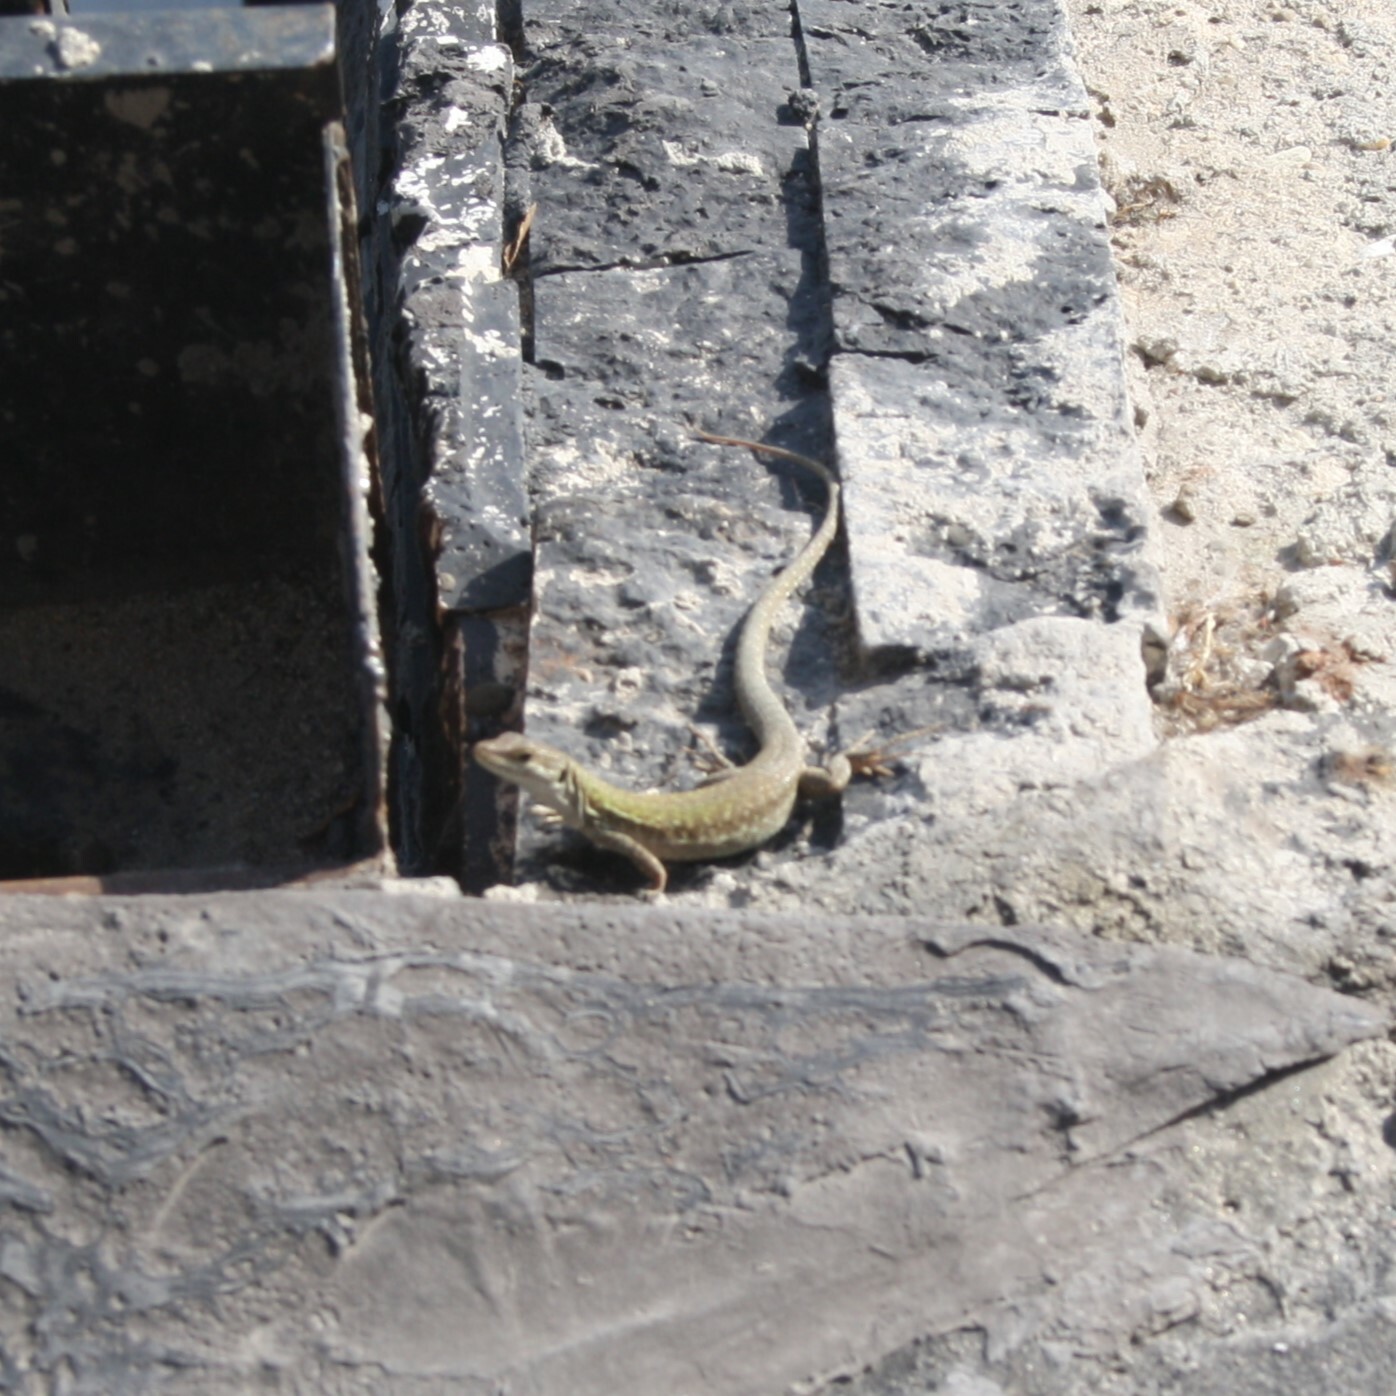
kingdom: Animalia
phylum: Chordata
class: Squamata
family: Lacertidae
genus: Podarcis
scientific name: Podarcis siculus
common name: Italian wall lizard
